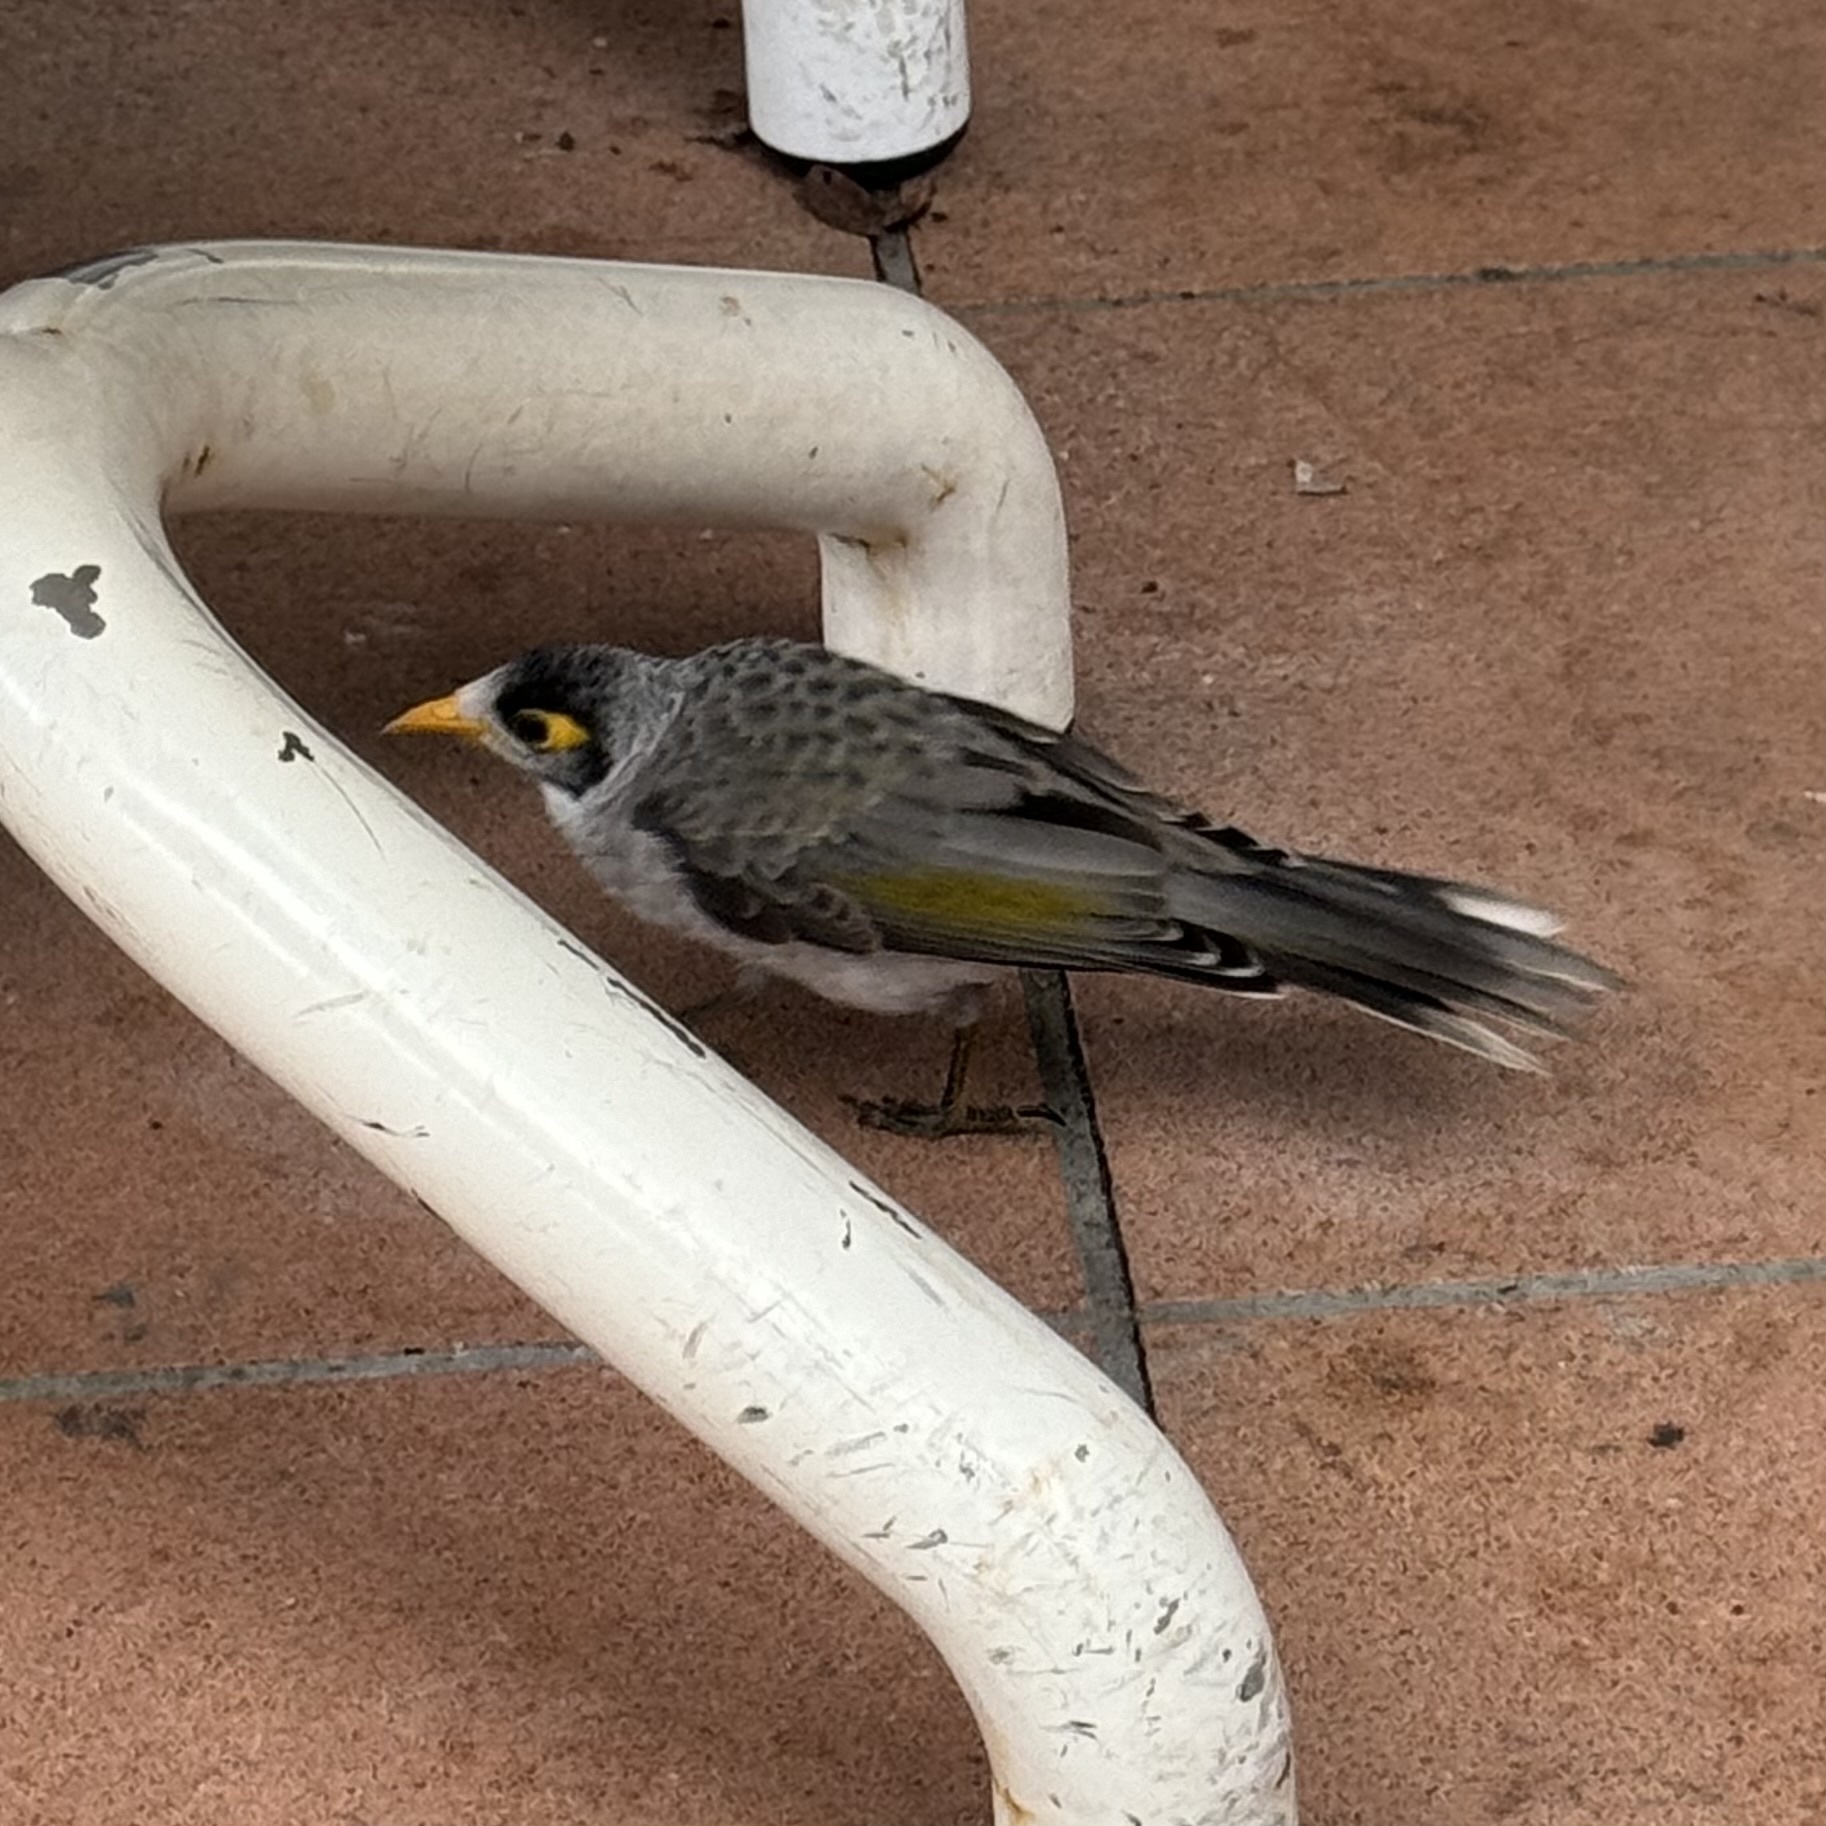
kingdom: Animalia
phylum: Chordata
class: Aves
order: Passeriformes
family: Meliphagidae
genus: Manorina
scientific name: Manorina melanocephala
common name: Noisy miner
